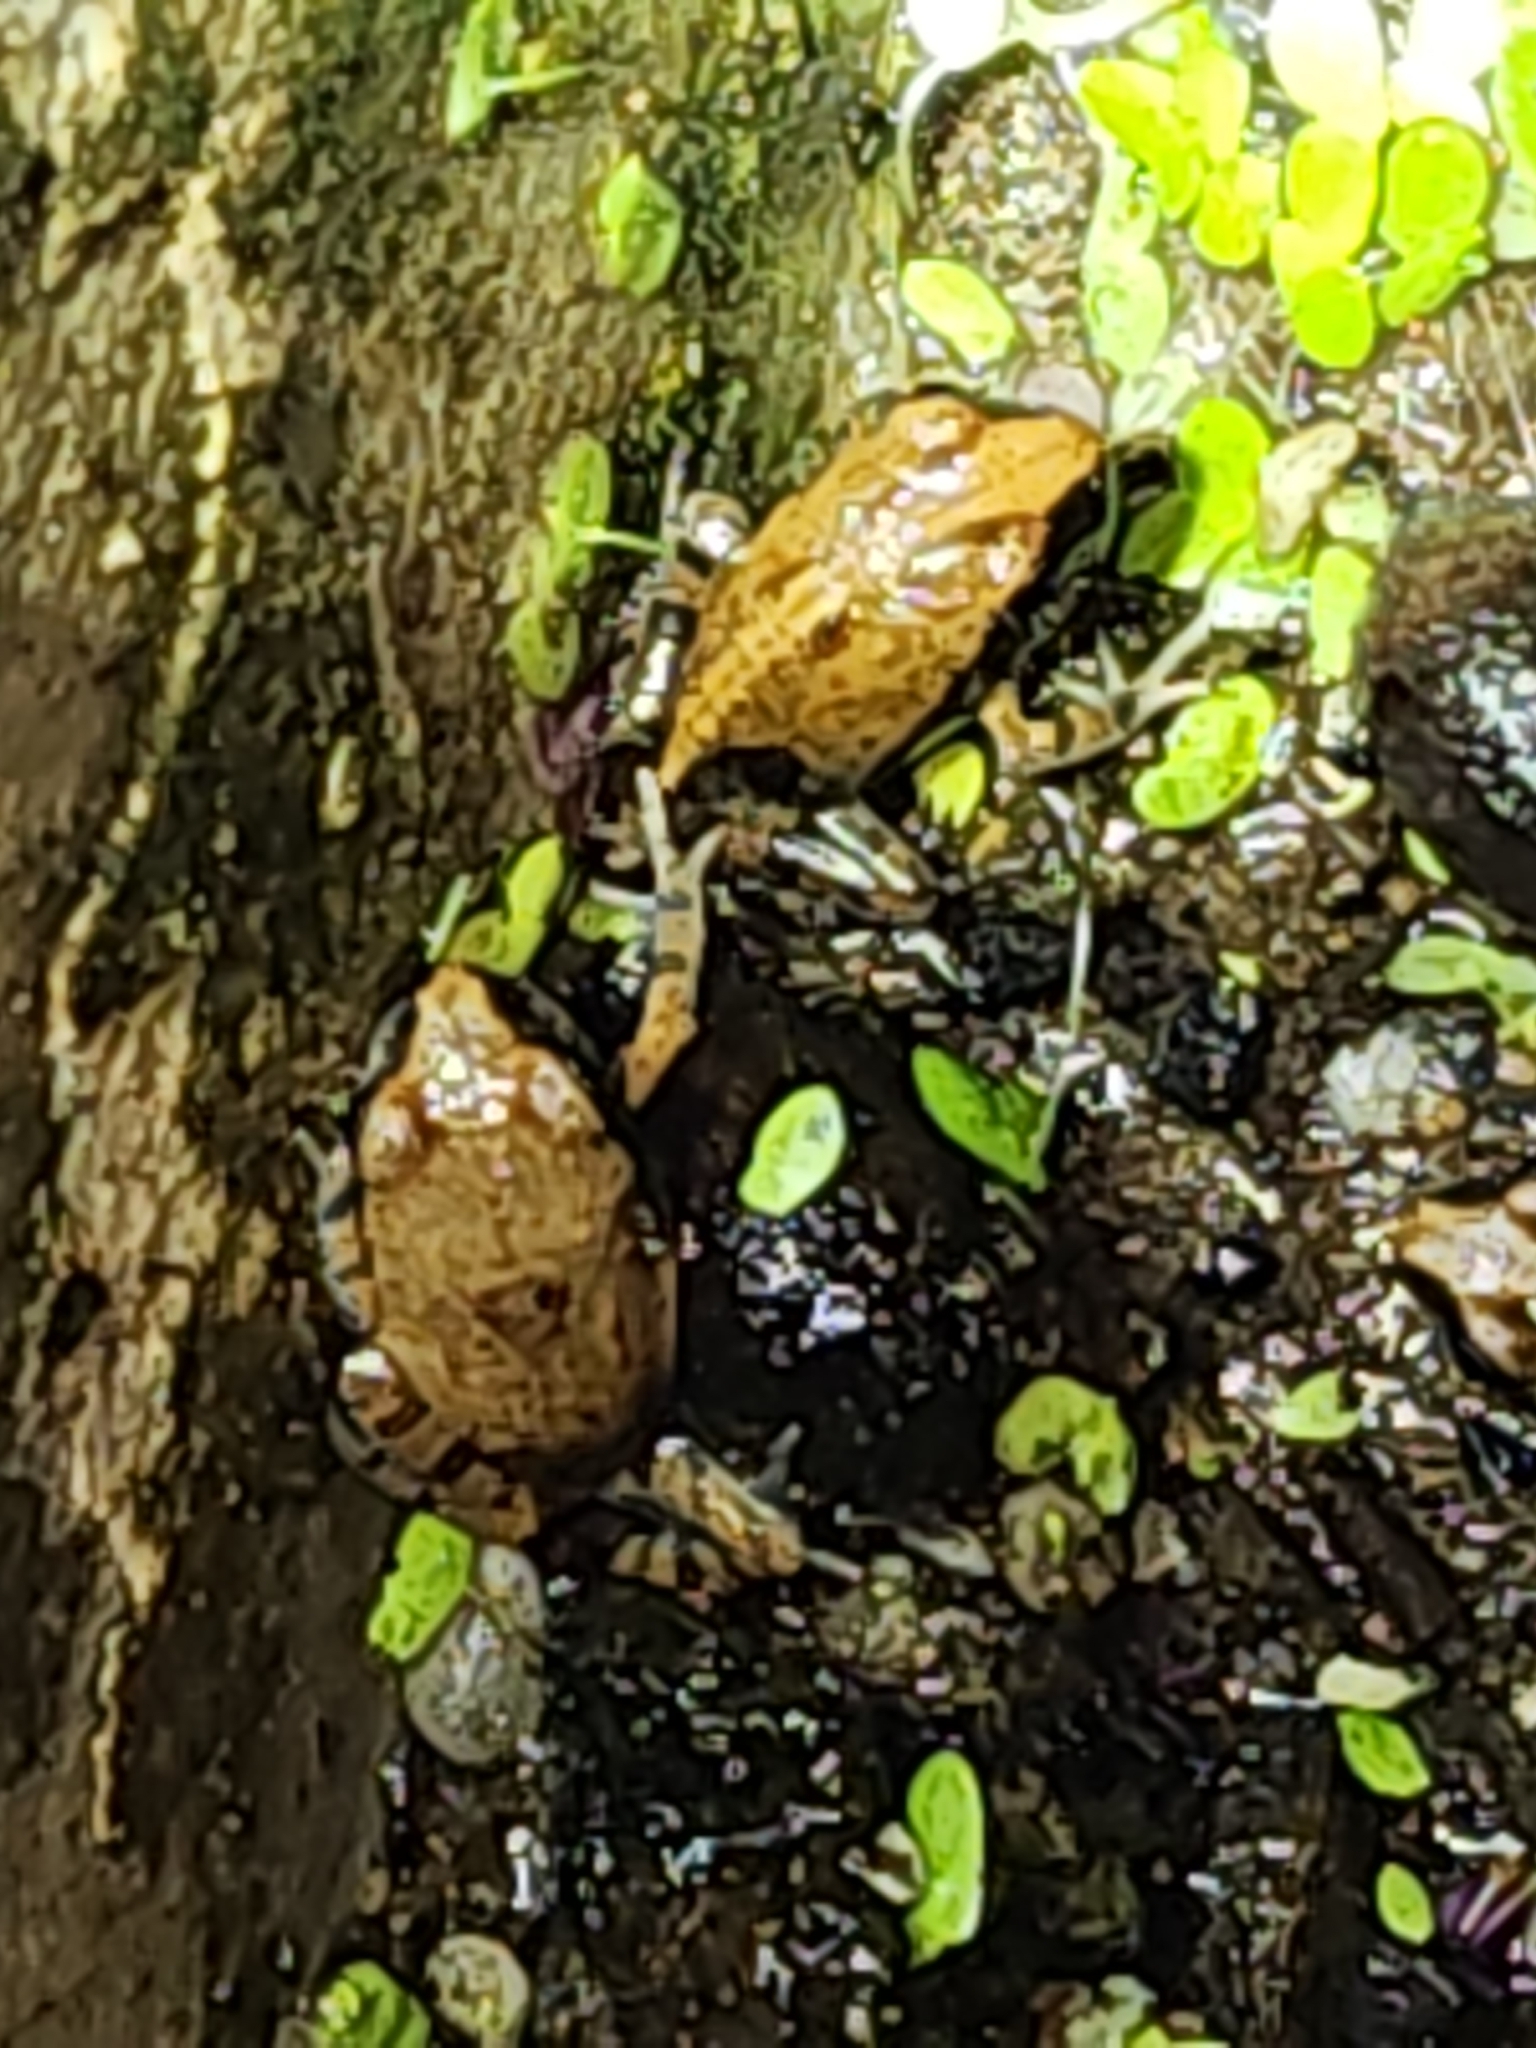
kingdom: Animalia
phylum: Chordata
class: Amphibia
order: Anura
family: Limnodynastidae
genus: Platyplectrum
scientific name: Platyplectrum ornatum
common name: Ornate burrowing frog
